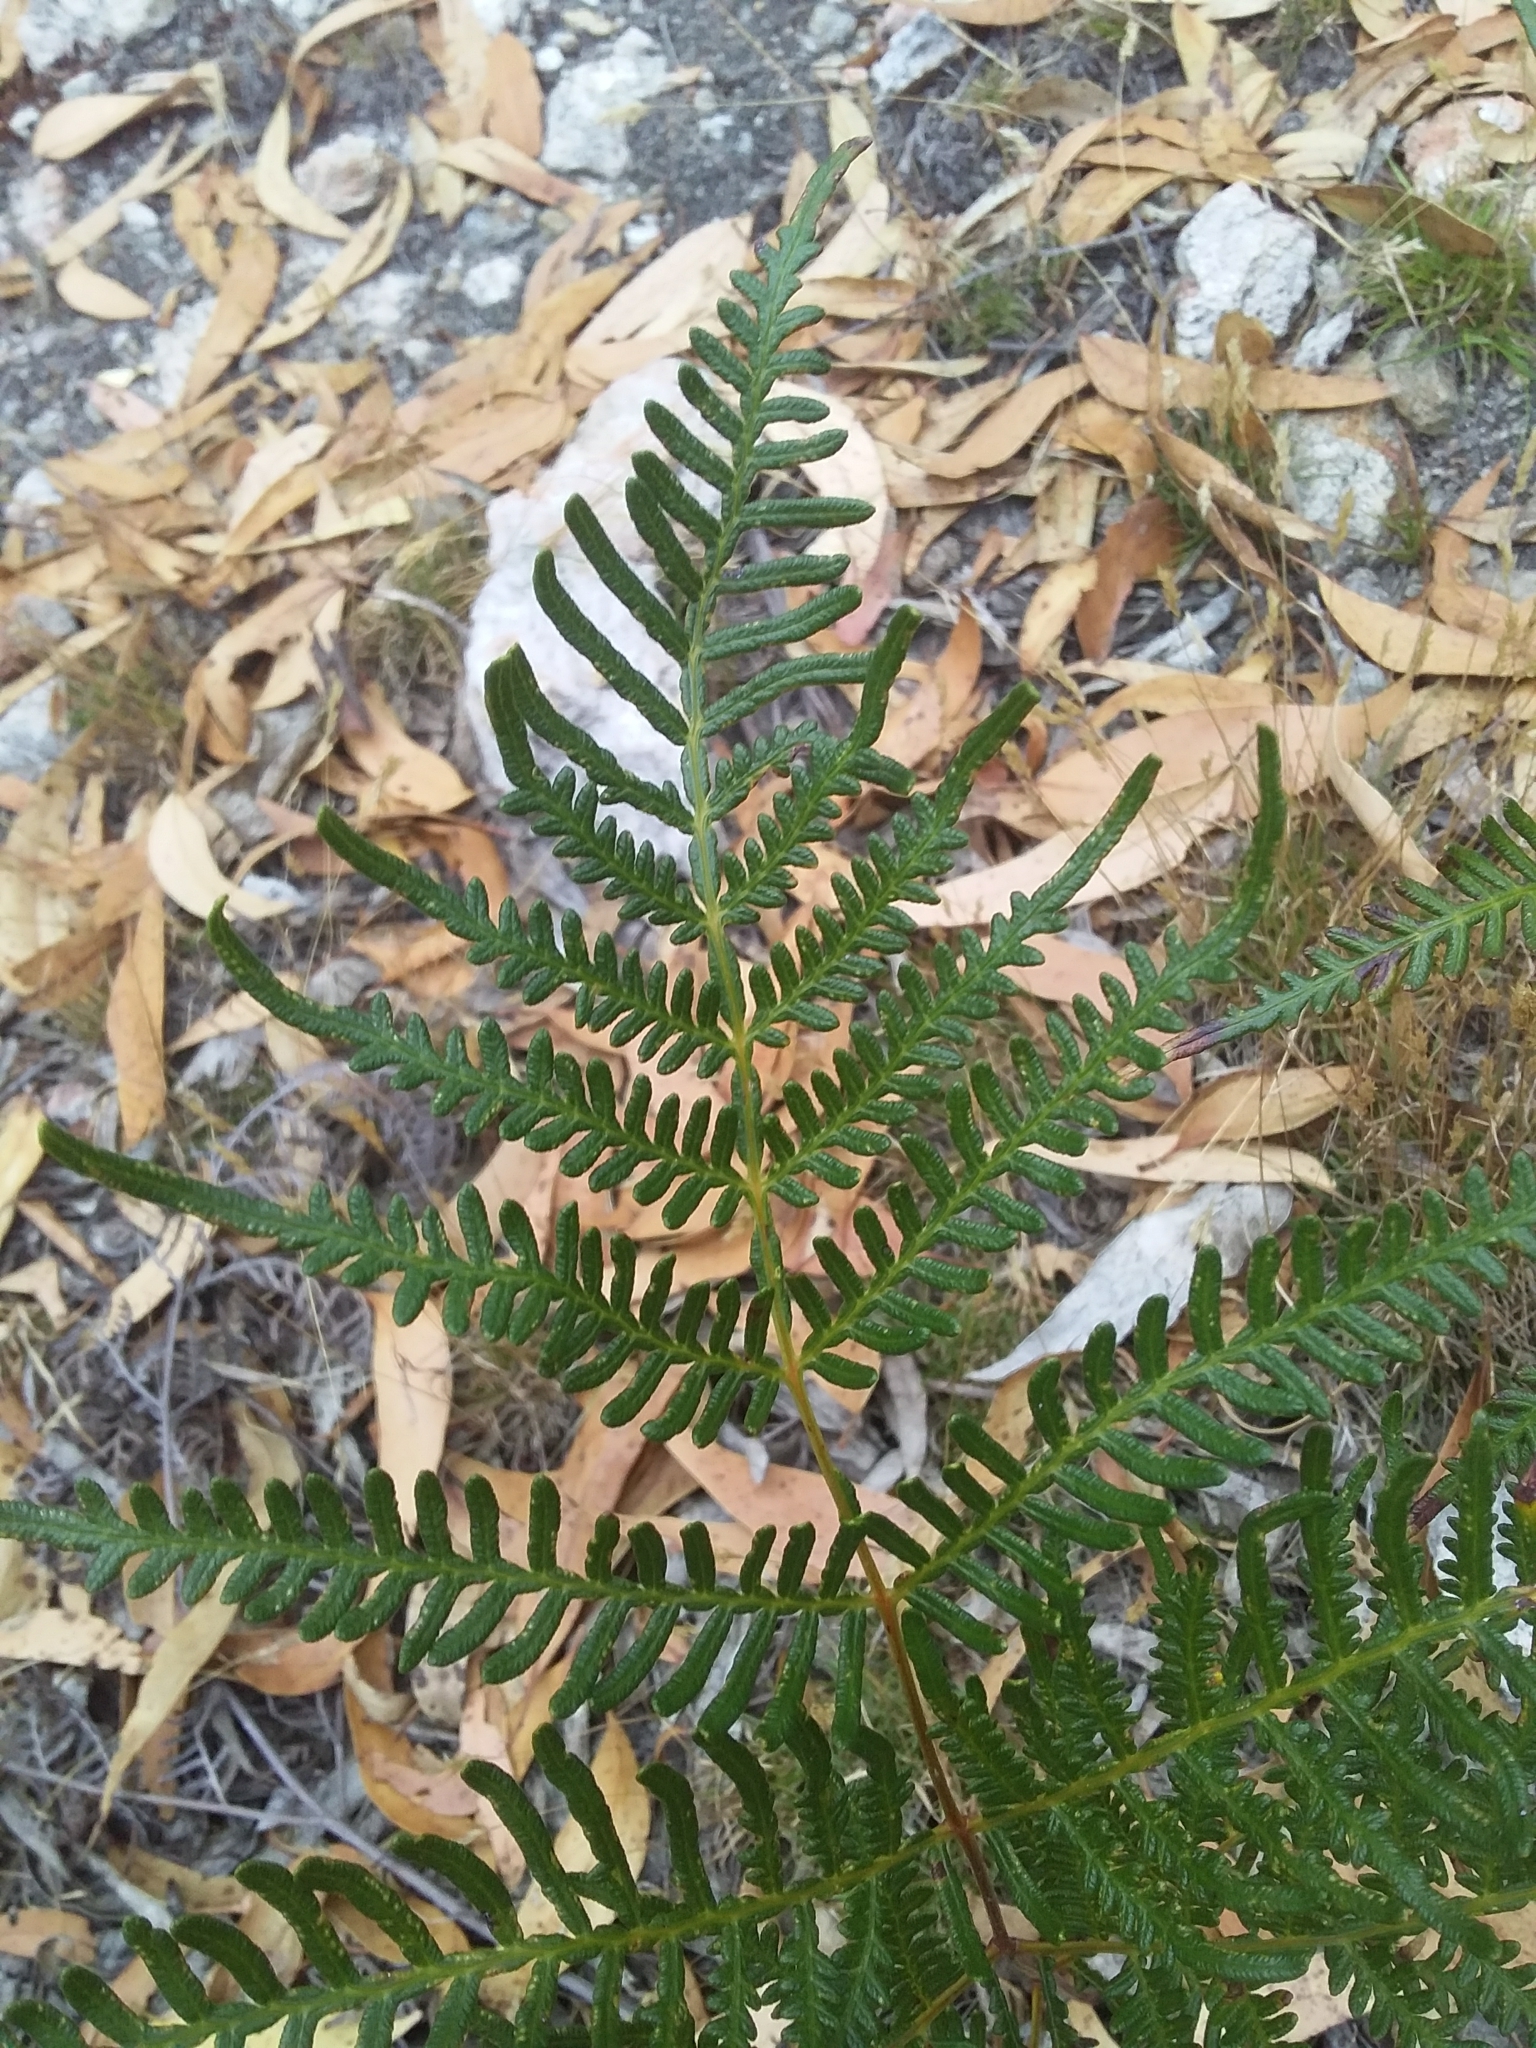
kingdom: Plantae
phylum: Tracheophyta
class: Polypodiopsida
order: Polypodiales
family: Dennstaedtiaceae
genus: Pteridium
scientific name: Pteridium esculentum
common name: Bracken fern
